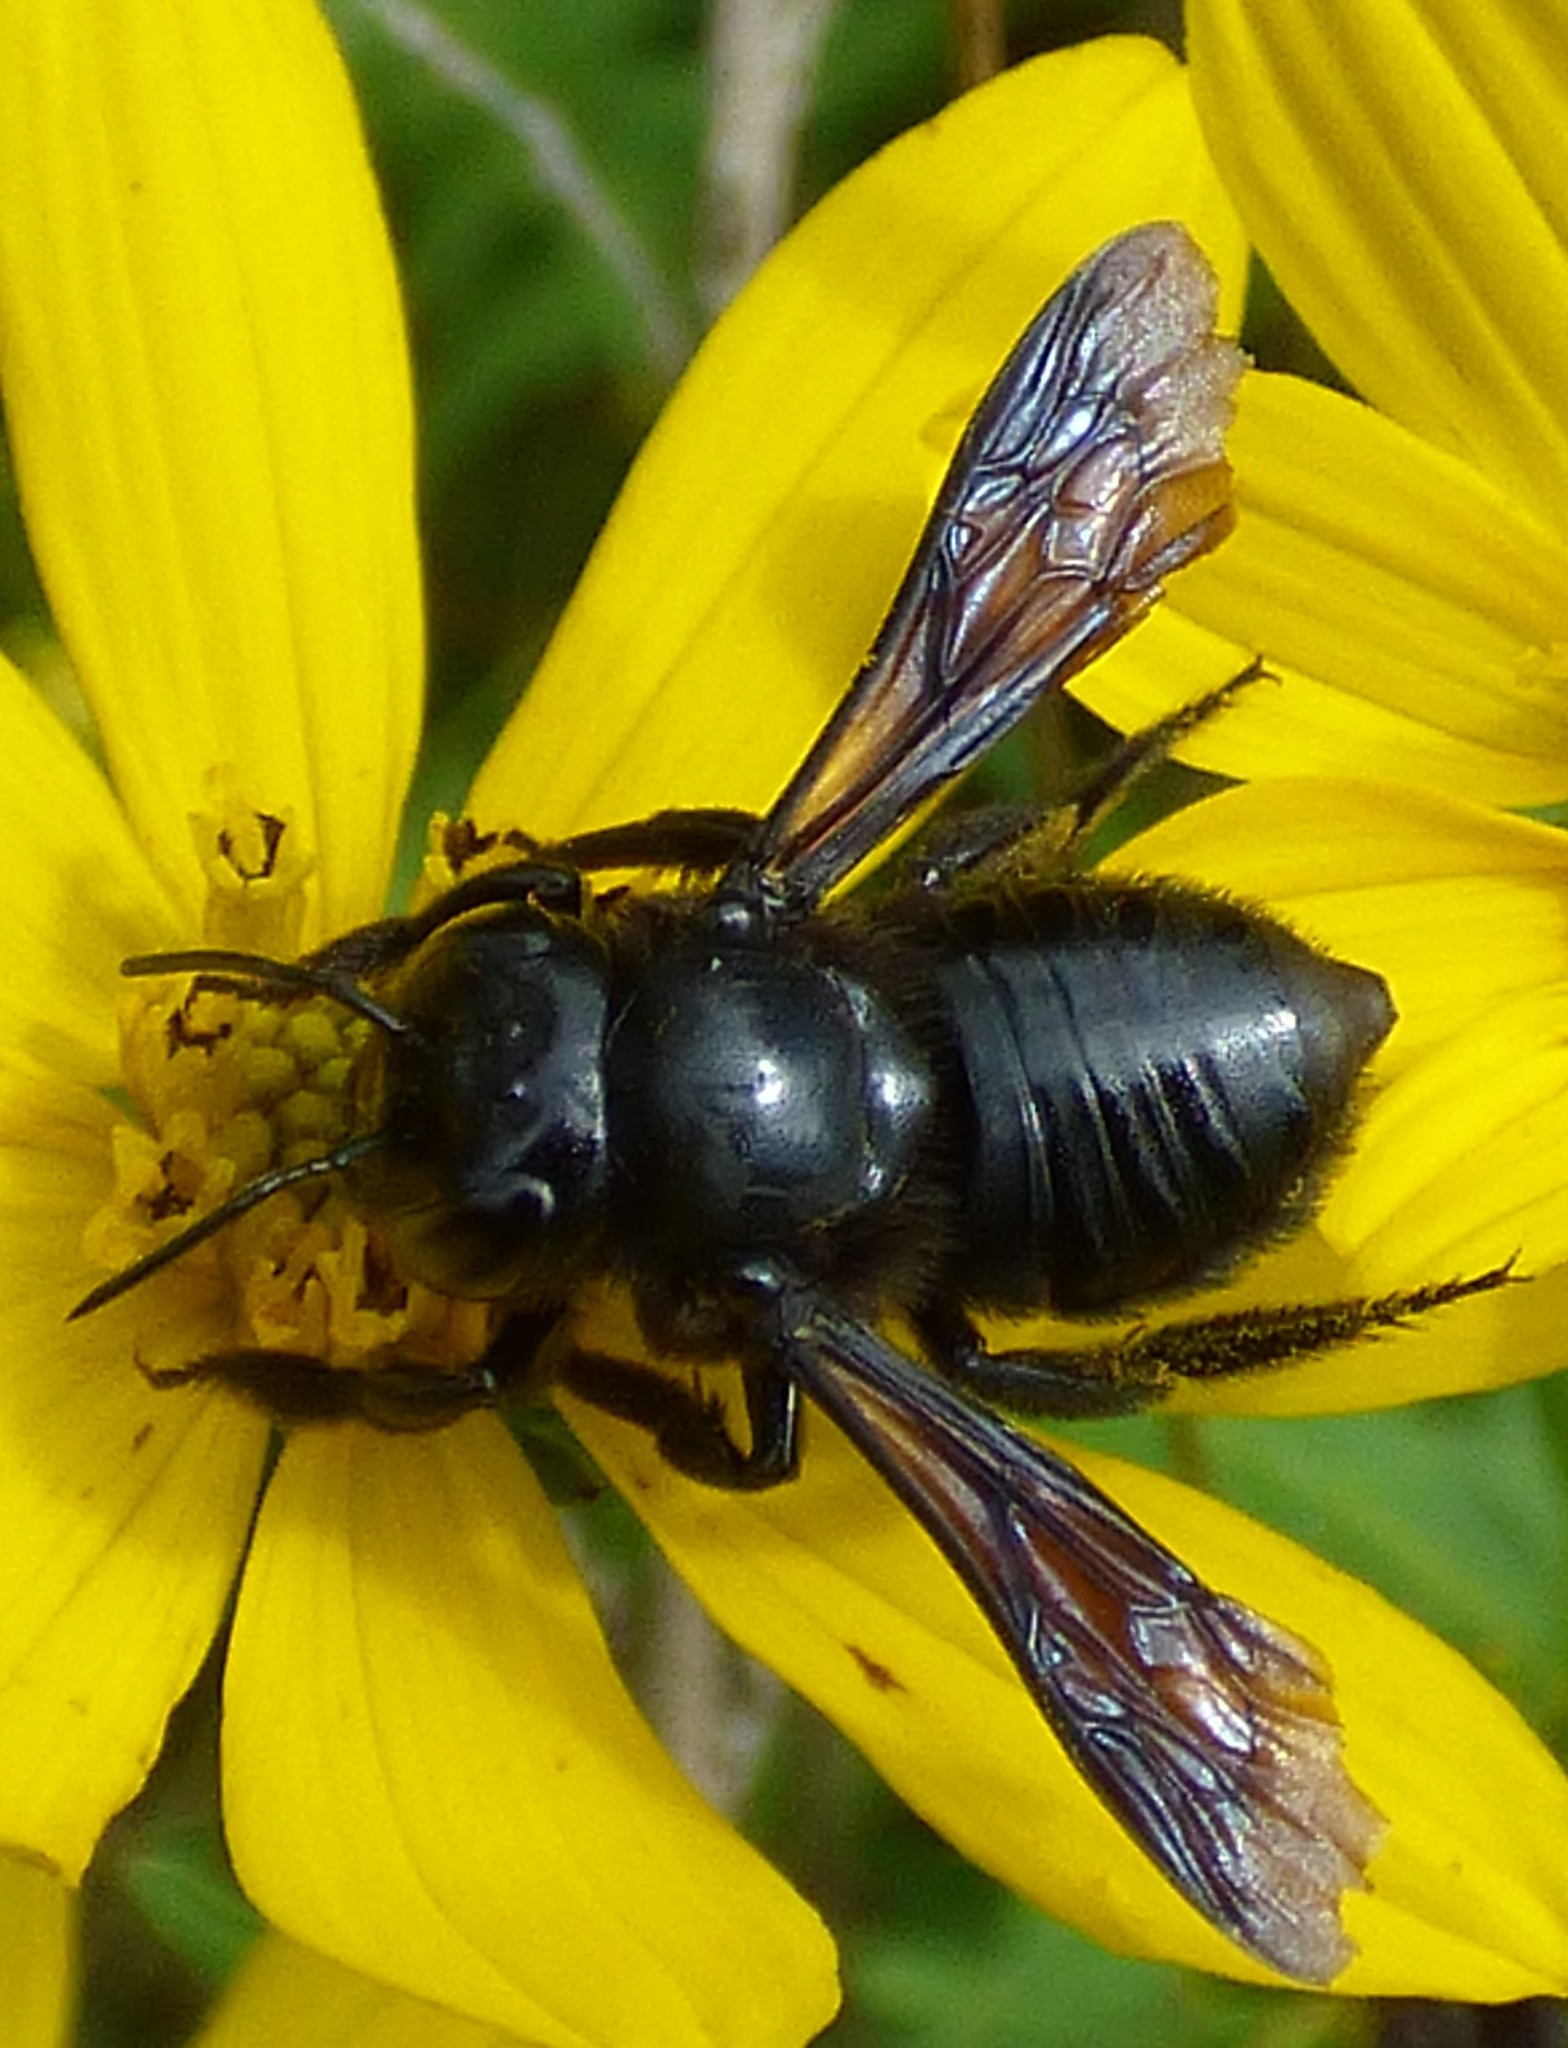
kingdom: Animalia
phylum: Arthropoda
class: Insecta
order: Hymenoptera
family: Megachilidae
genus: Megachile
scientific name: Megachile xylocopoides
